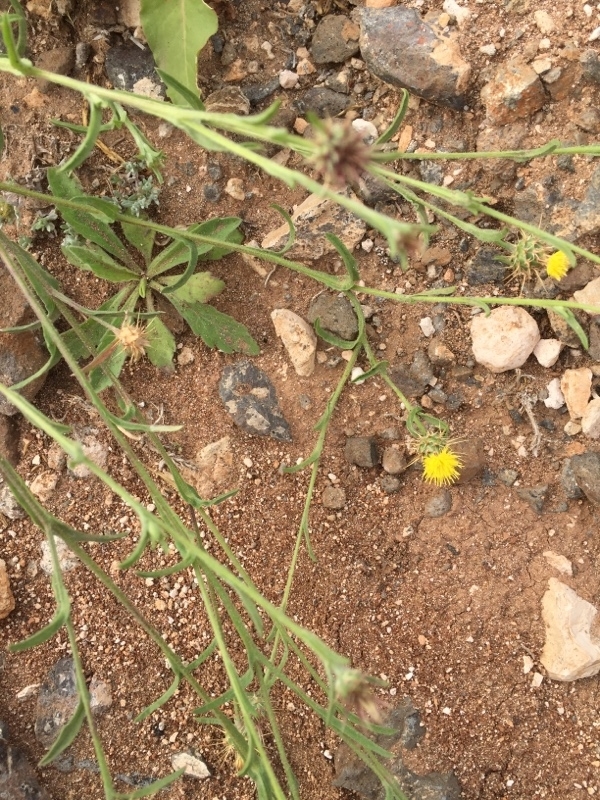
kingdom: Plantae
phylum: Tracheophyta
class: Magnoliopsida
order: Asterales
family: Asteraceae
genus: Centaurea
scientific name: Centaurea melitensis
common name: Maltese star-thistle
